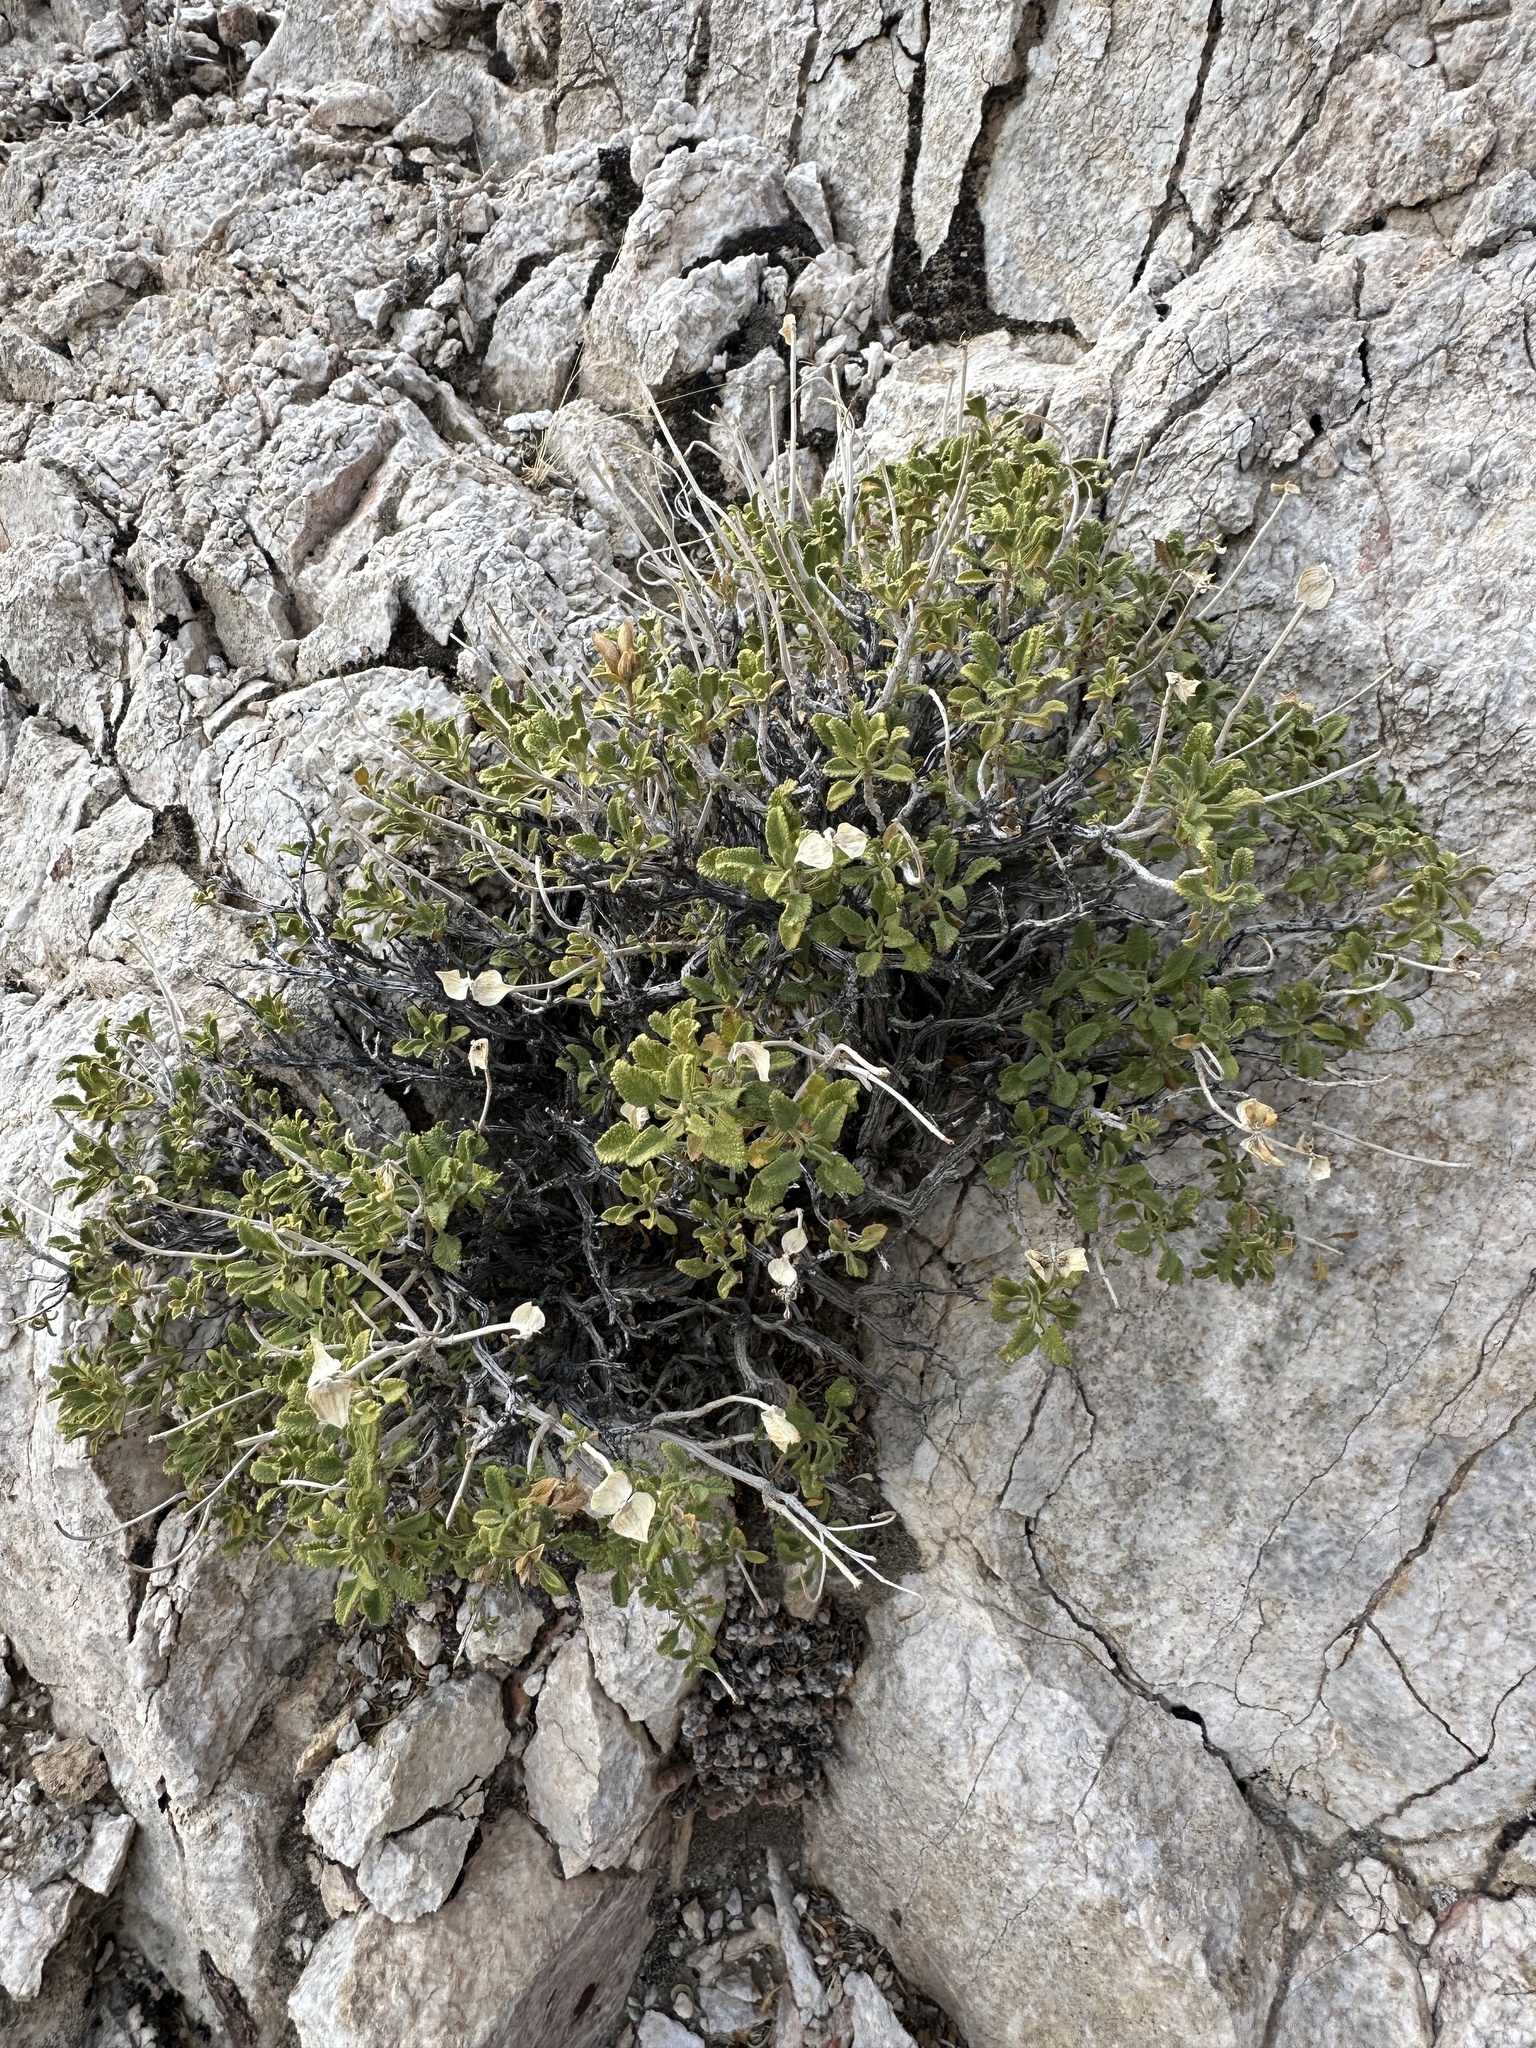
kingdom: Plantae
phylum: Tracheophyta
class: Magnoliopsida
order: Lamiales
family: Lamiaceae
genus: Salvia
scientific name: Salvia mohavensis
